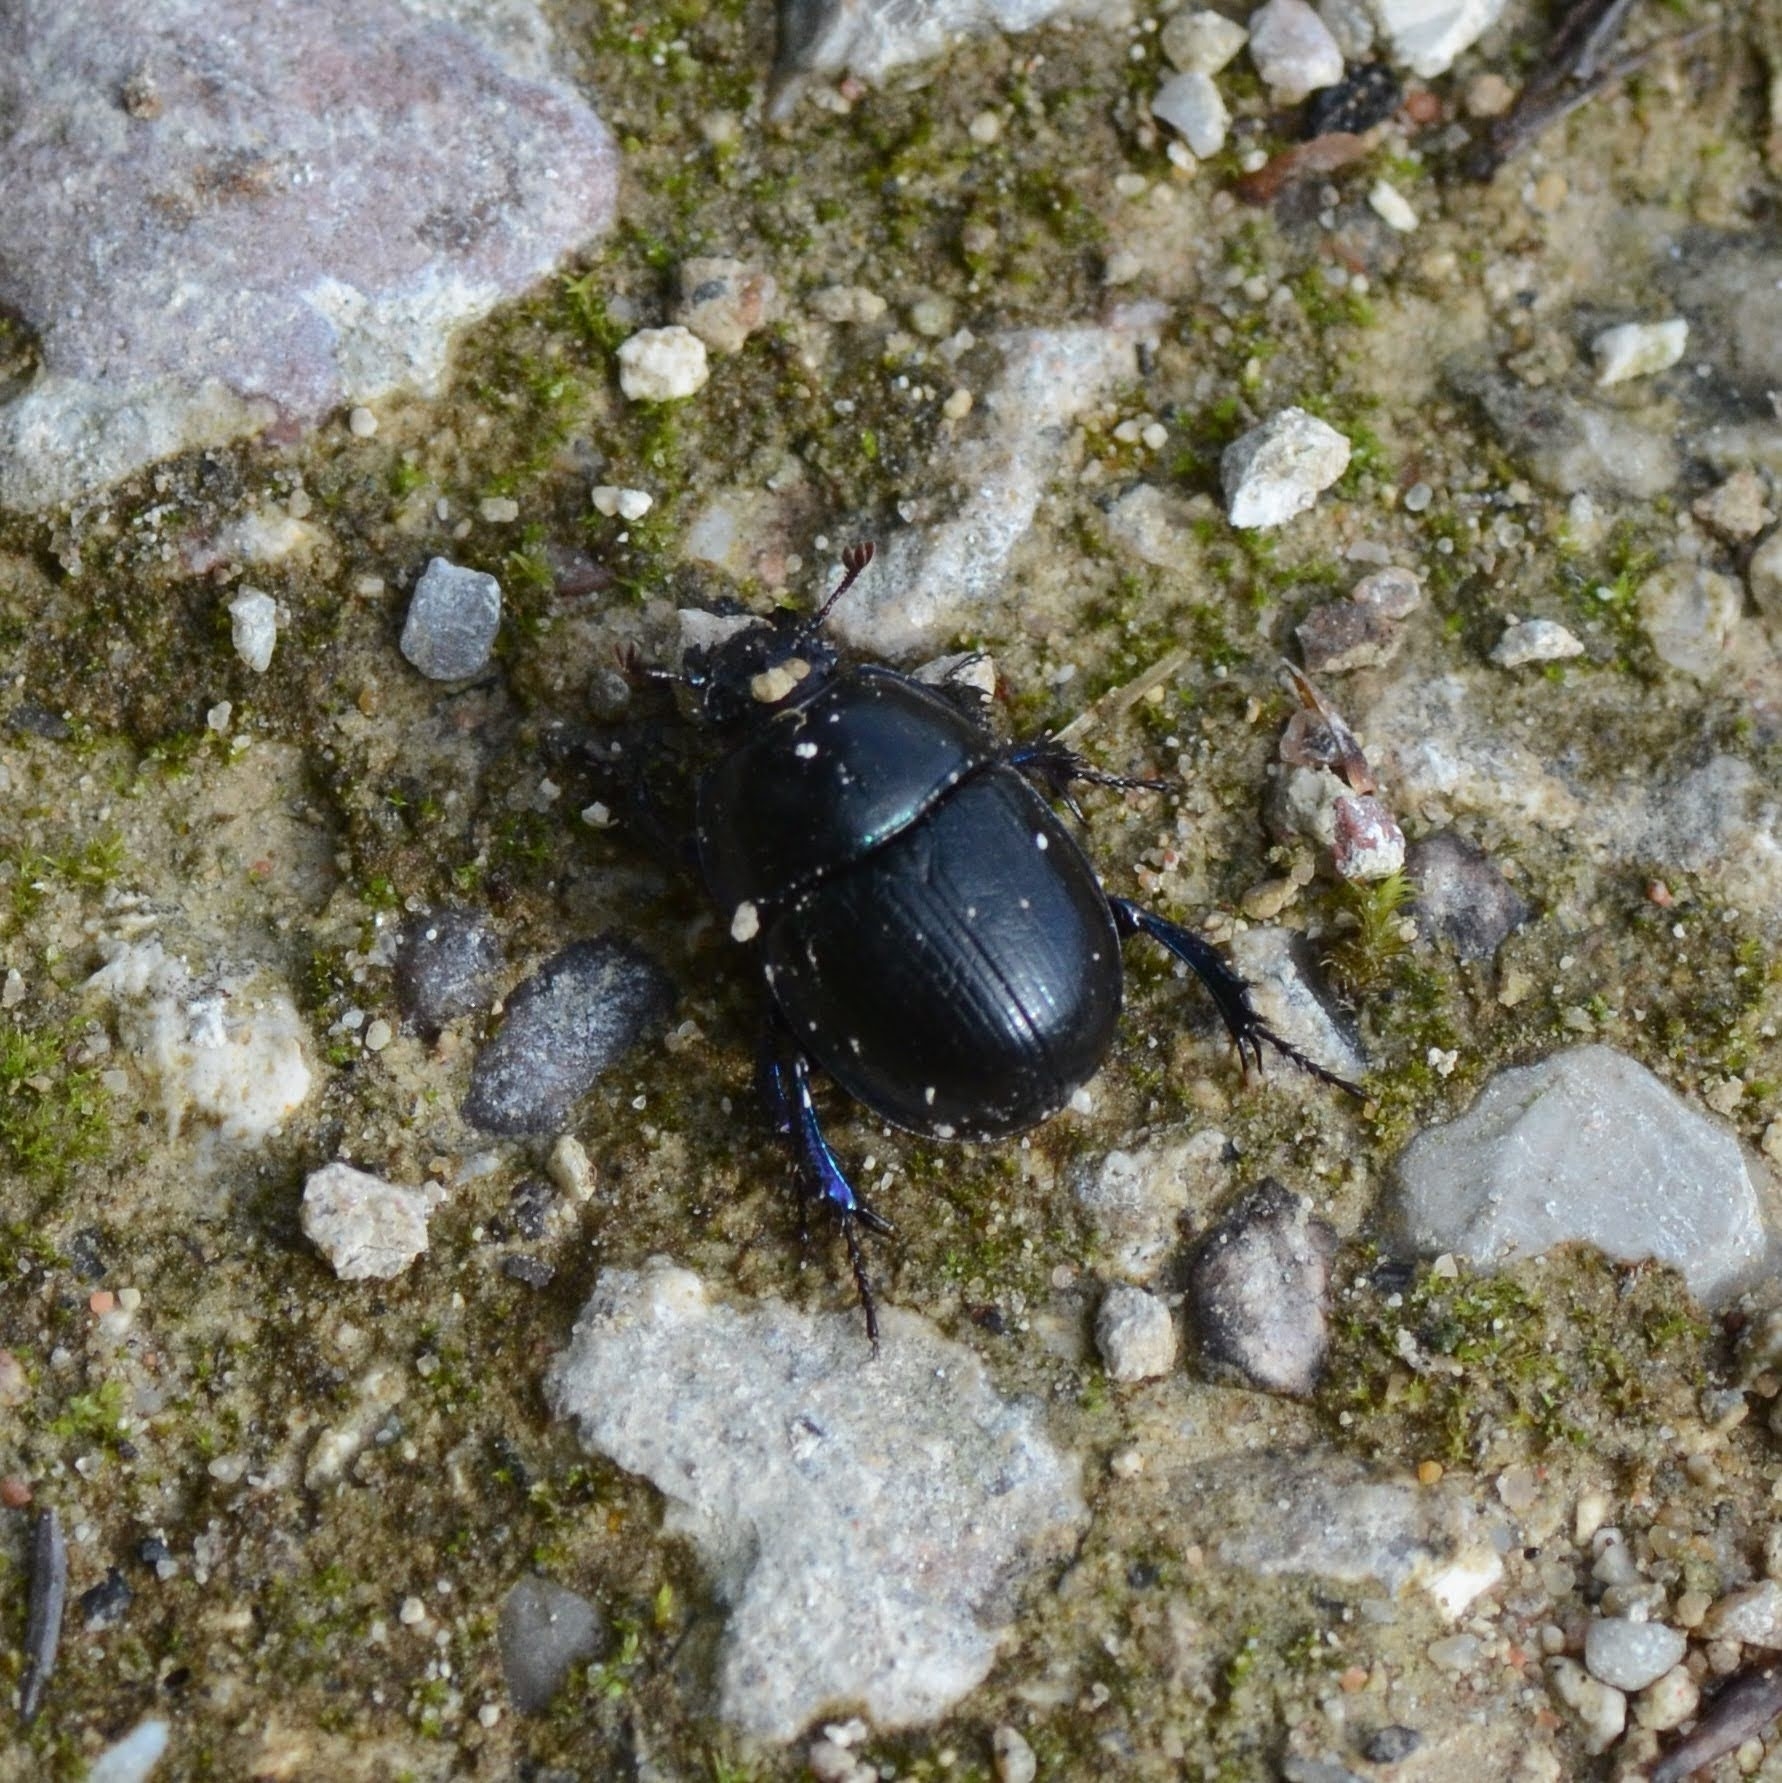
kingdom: Animalia
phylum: Arthropoda
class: Insecta
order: Coleoptera
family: Geotrupidae
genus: Anoplotrupes
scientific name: Anoplotrupes stercorosus
